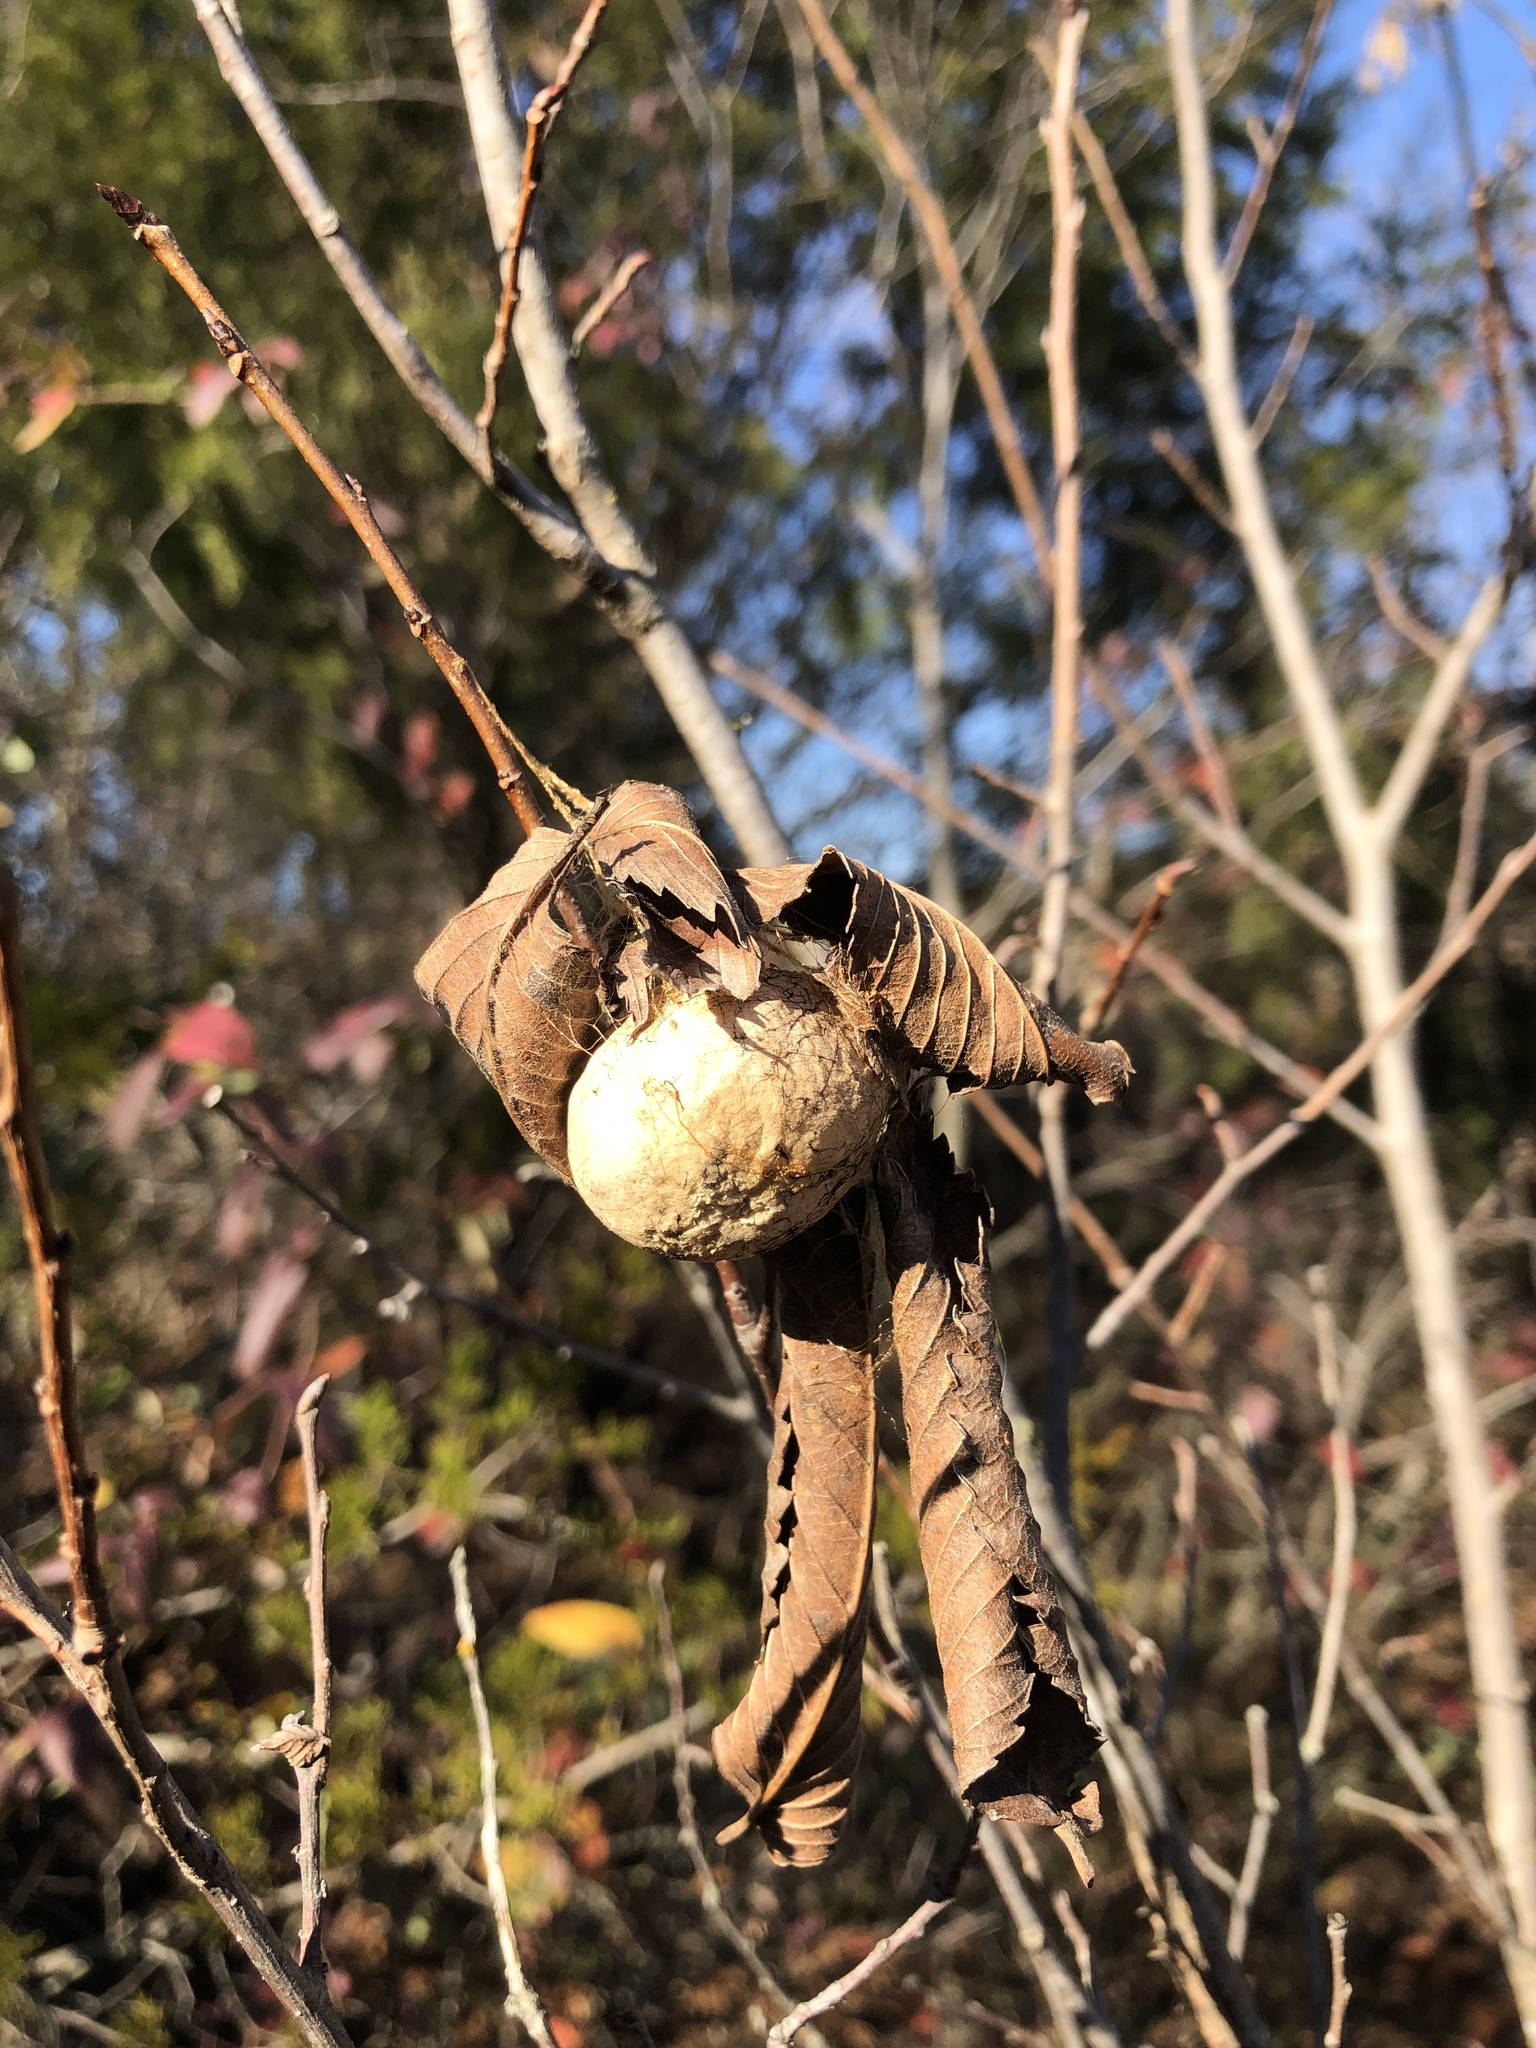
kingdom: Animalia
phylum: Arthropoda
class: Insecta
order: Lepidoptera
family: Saturniidae
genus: Antheraea
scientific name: Antheraea polyphemus
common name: Polyphemus moth
